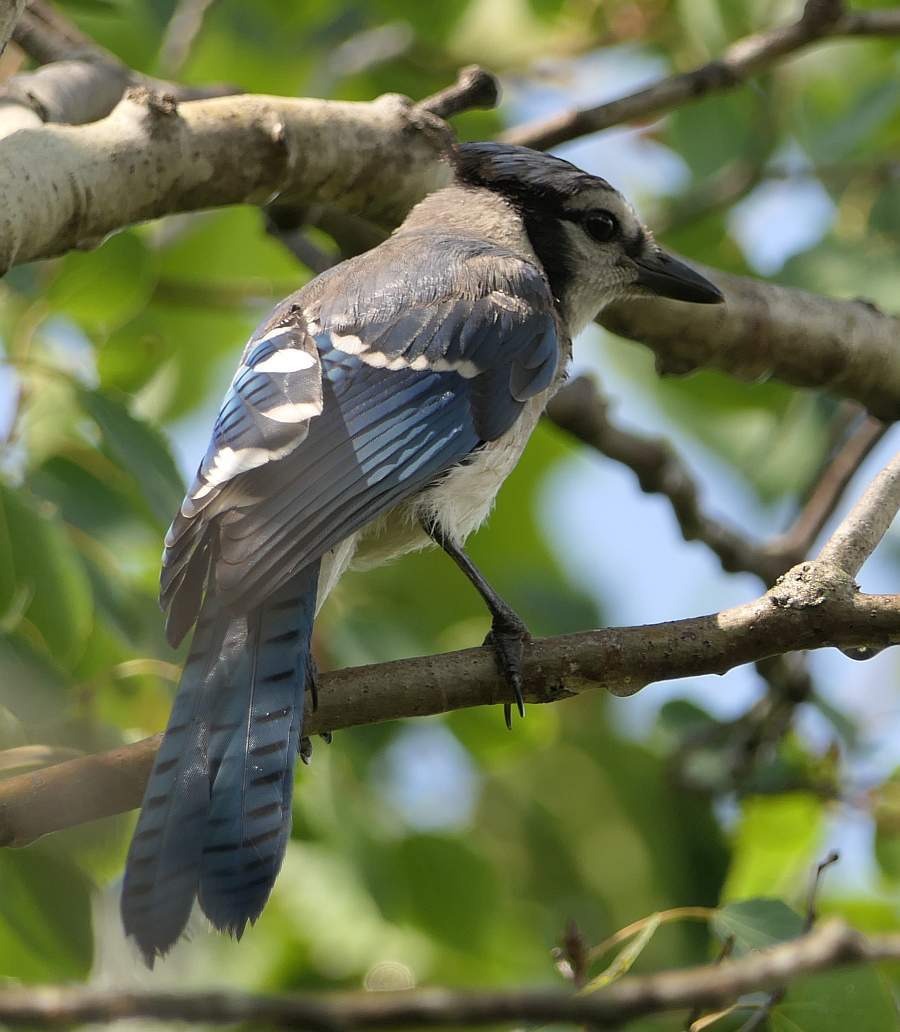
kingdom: Animalia
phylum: Chordata
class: Aves
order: Passeriformes
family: Corvidae
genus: Cyanocitta
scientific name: Cyanocitta cristata
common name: Blue jay
